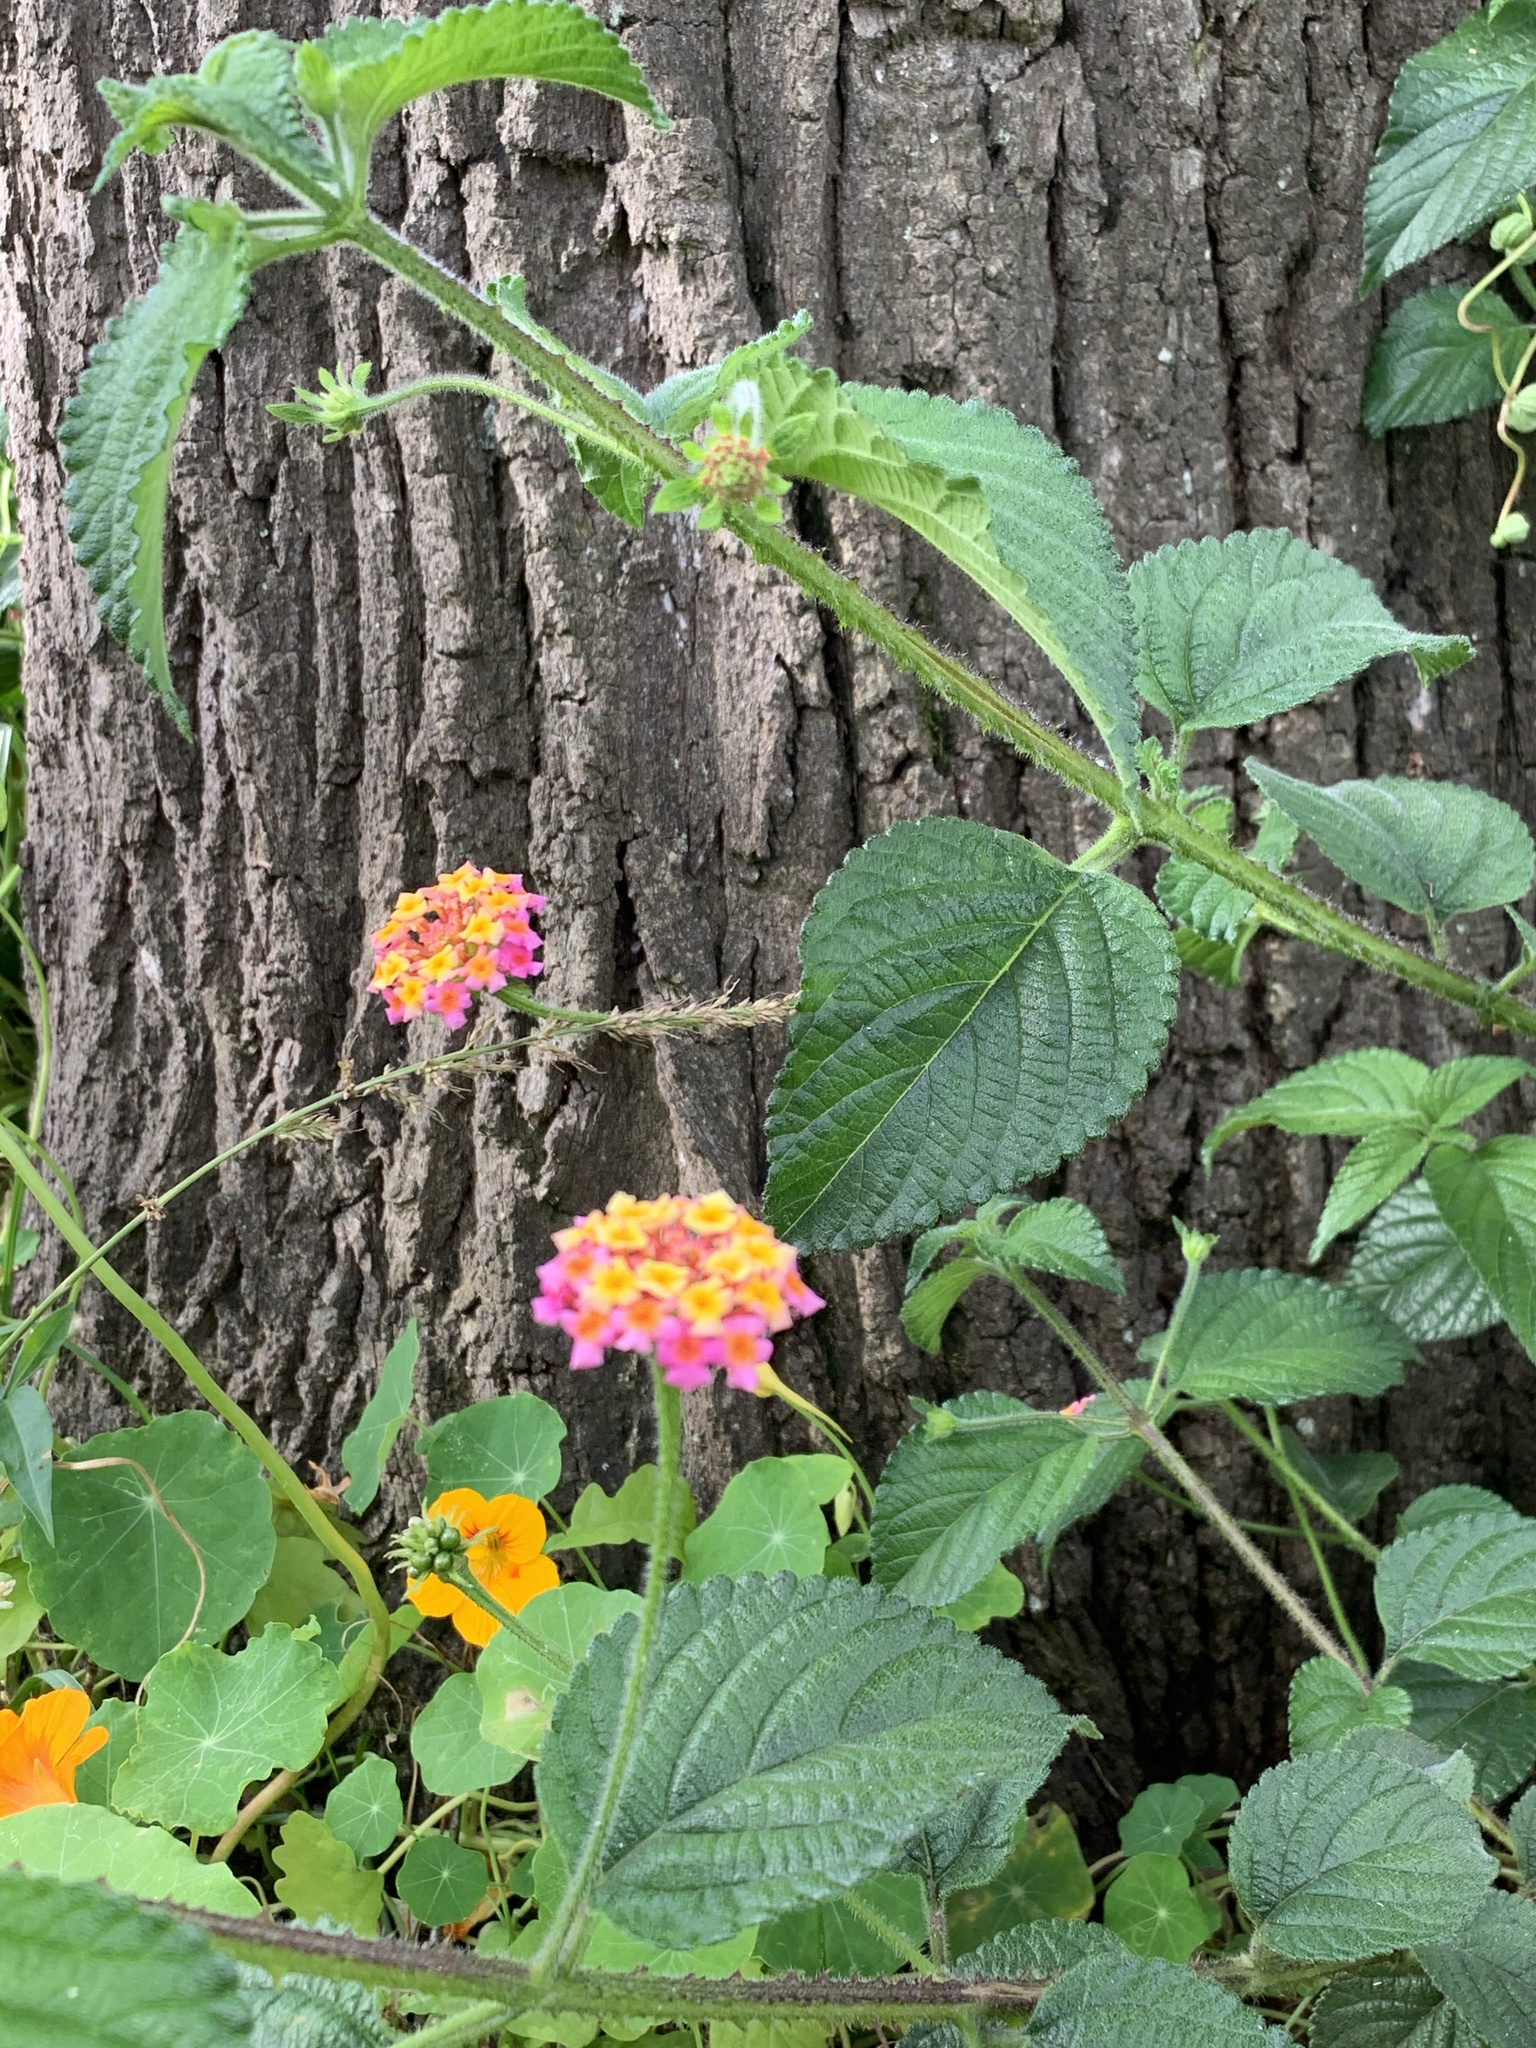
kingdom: Plantae
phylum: Tracheophyta
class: Magnoliopsida
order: Lamiales
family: Verbenaceae
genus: Lantana
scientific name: Lantana camara
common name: Lantana
